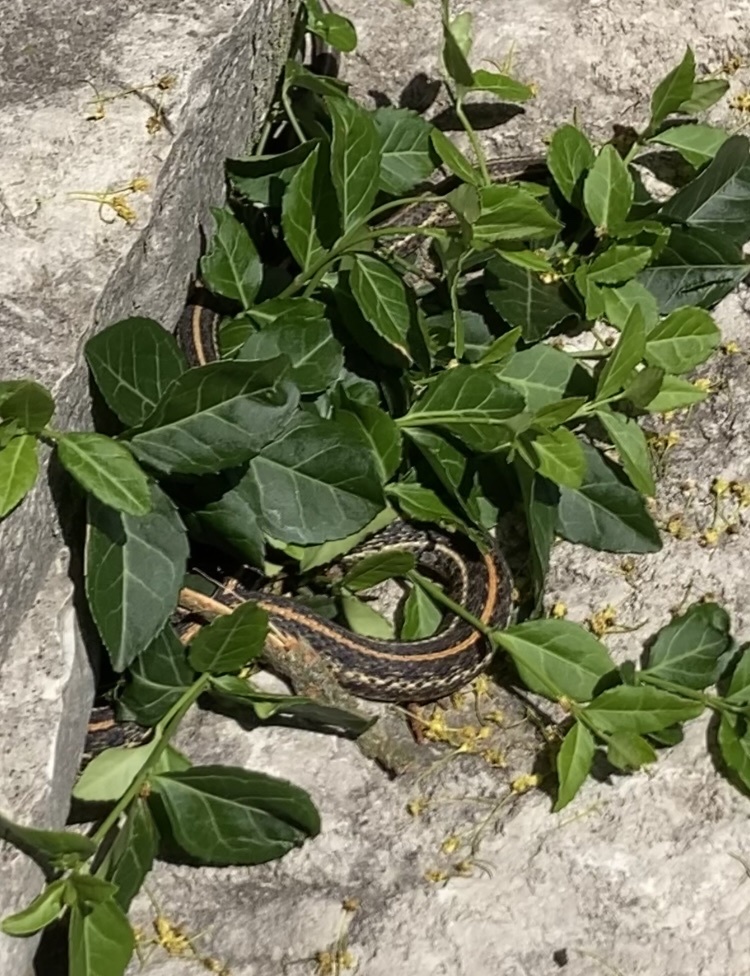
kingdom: Animalia
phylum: Chordata
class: Squamata
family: Colubridae
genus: Thamnophis
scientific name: Thamnophis radix
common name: Plains garter snake
